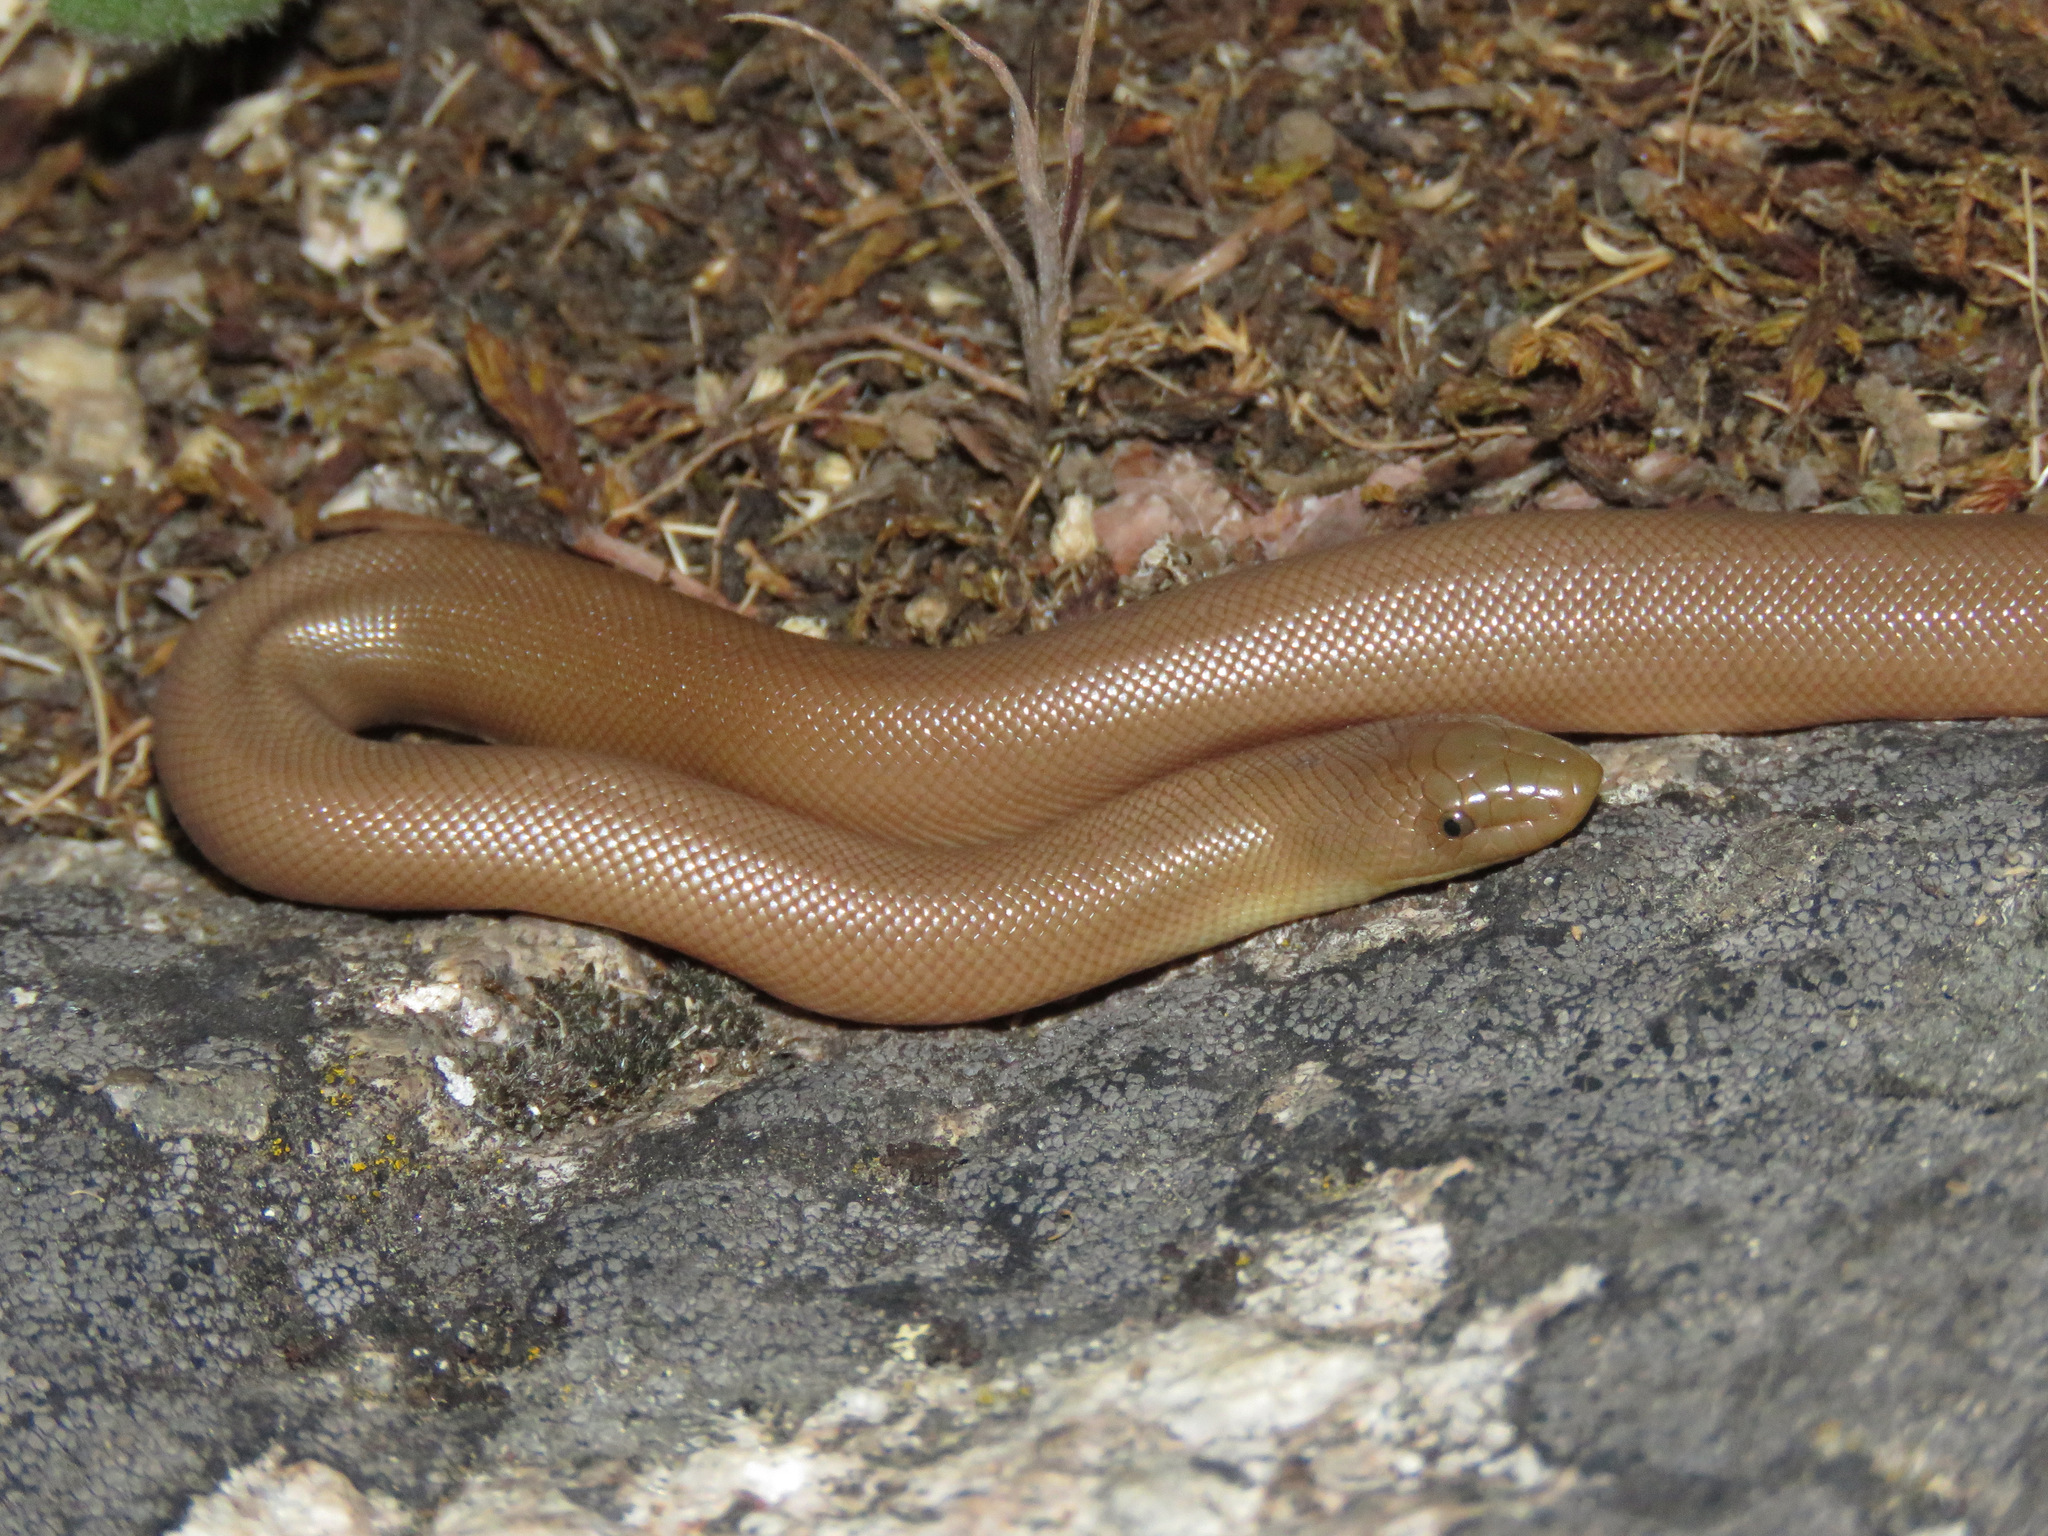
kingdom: Animalia
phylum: Chordata
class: Squamata
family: Boidae
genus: Charina
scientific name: Charina bottae
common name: Northern rubber boa
